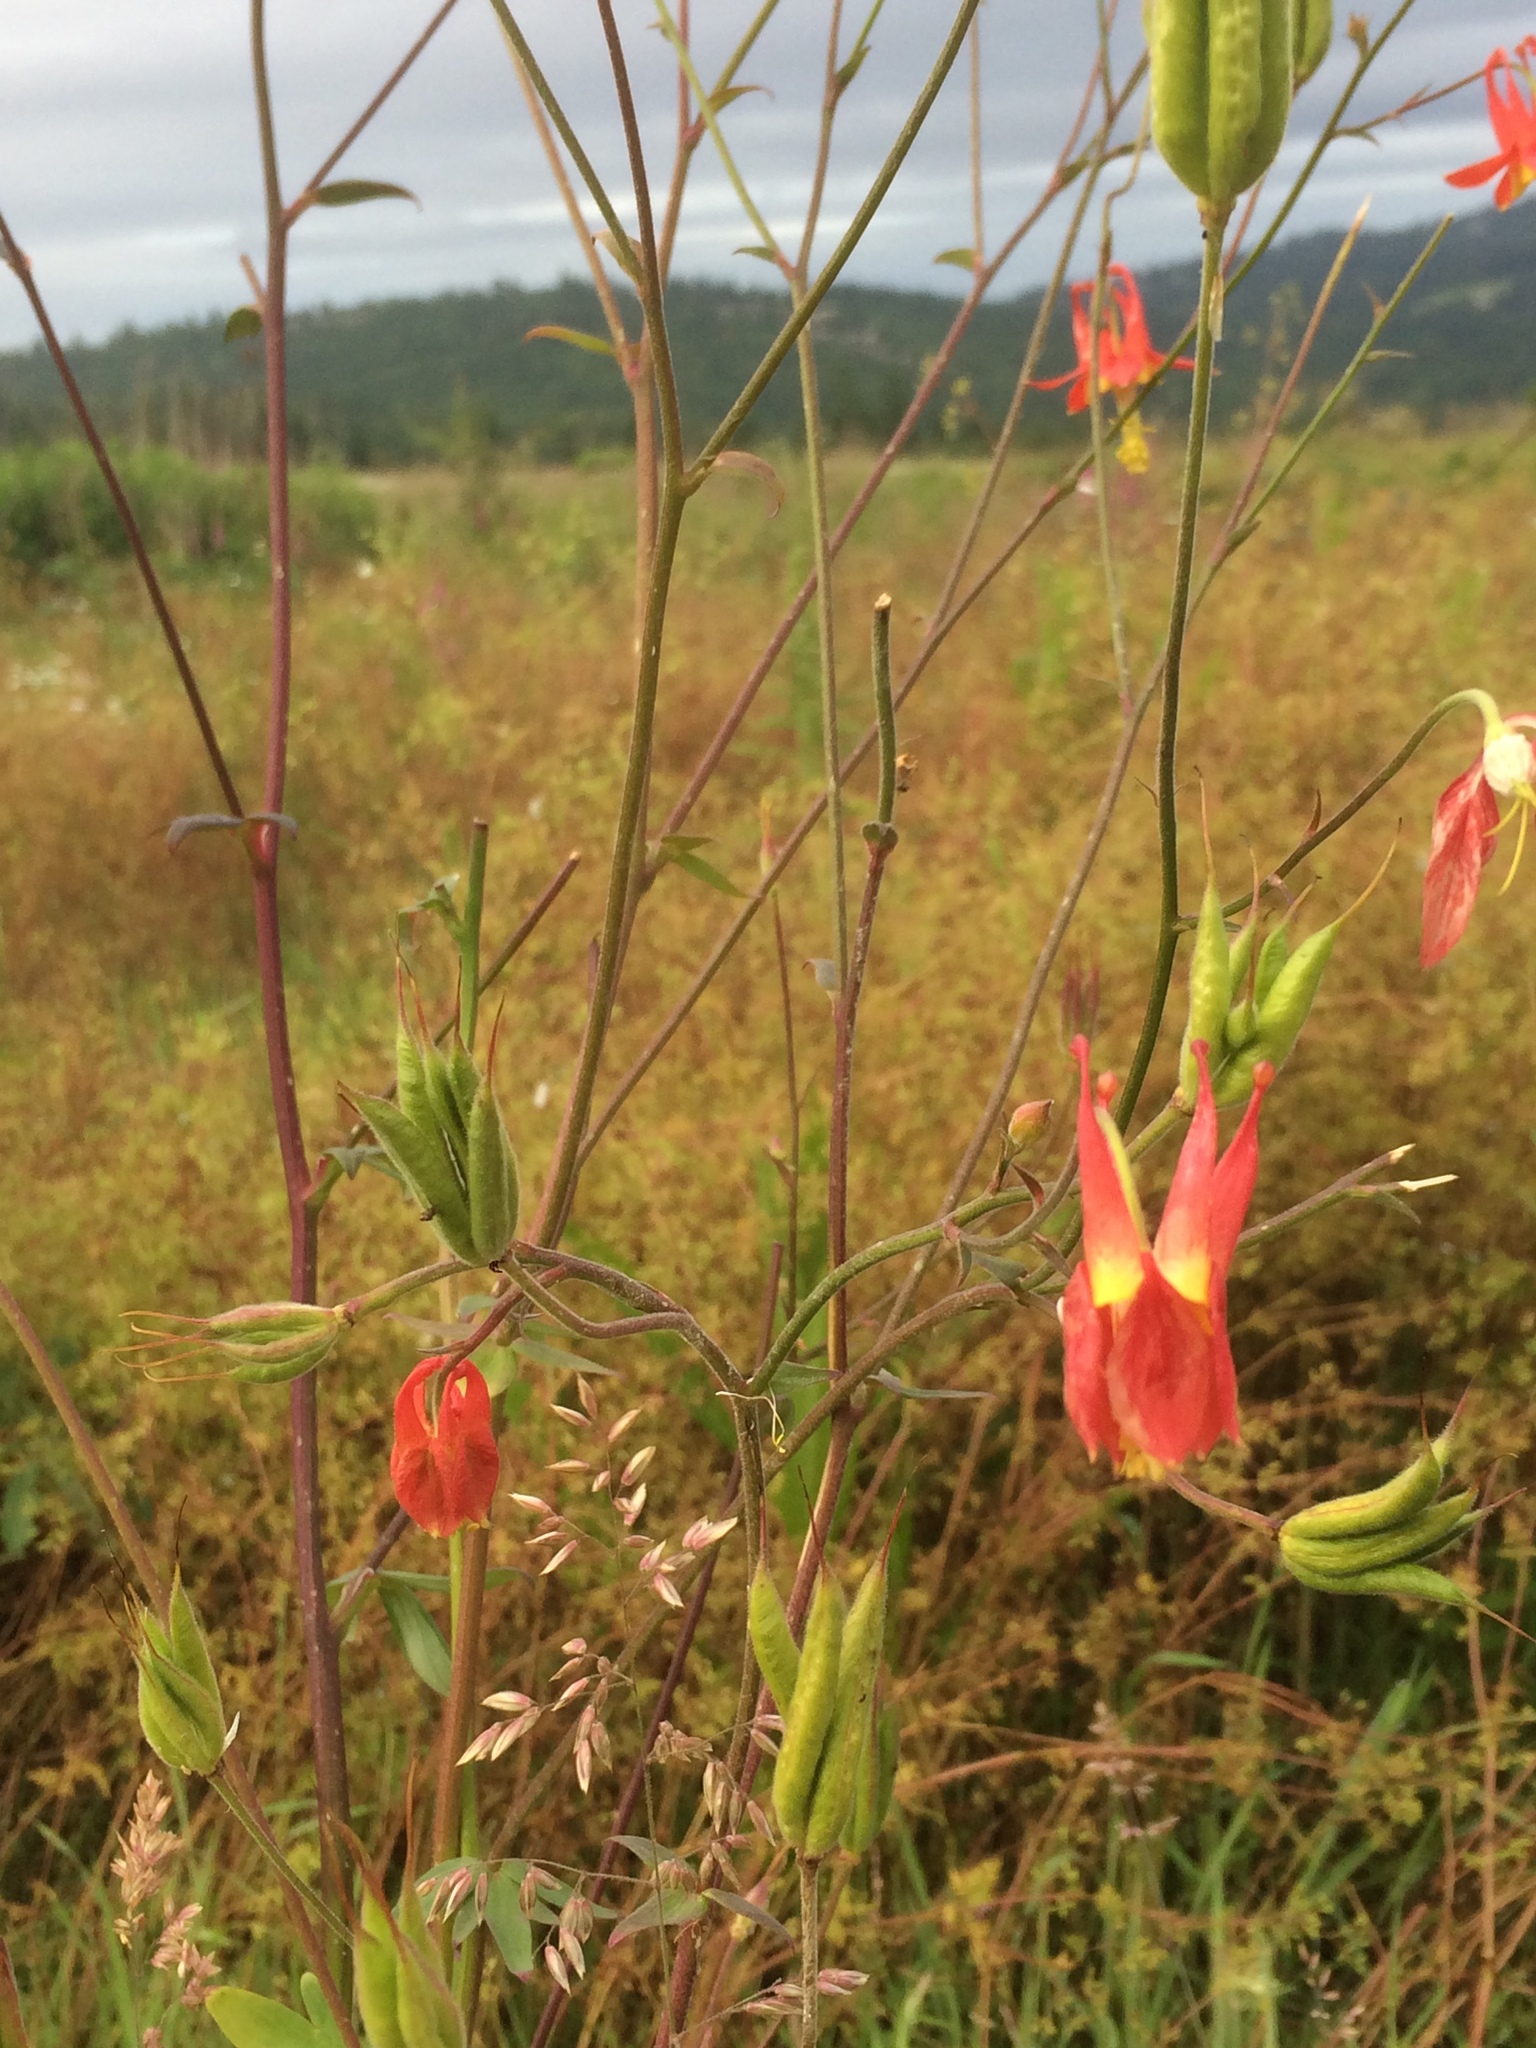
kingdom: Plantae
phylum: Tracheophyta
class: Magnoliopsida
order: Ranunculales
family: Ranunculaceae
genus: Aquilegia
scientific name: Aquilegia formosa
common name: Sitka columbine
